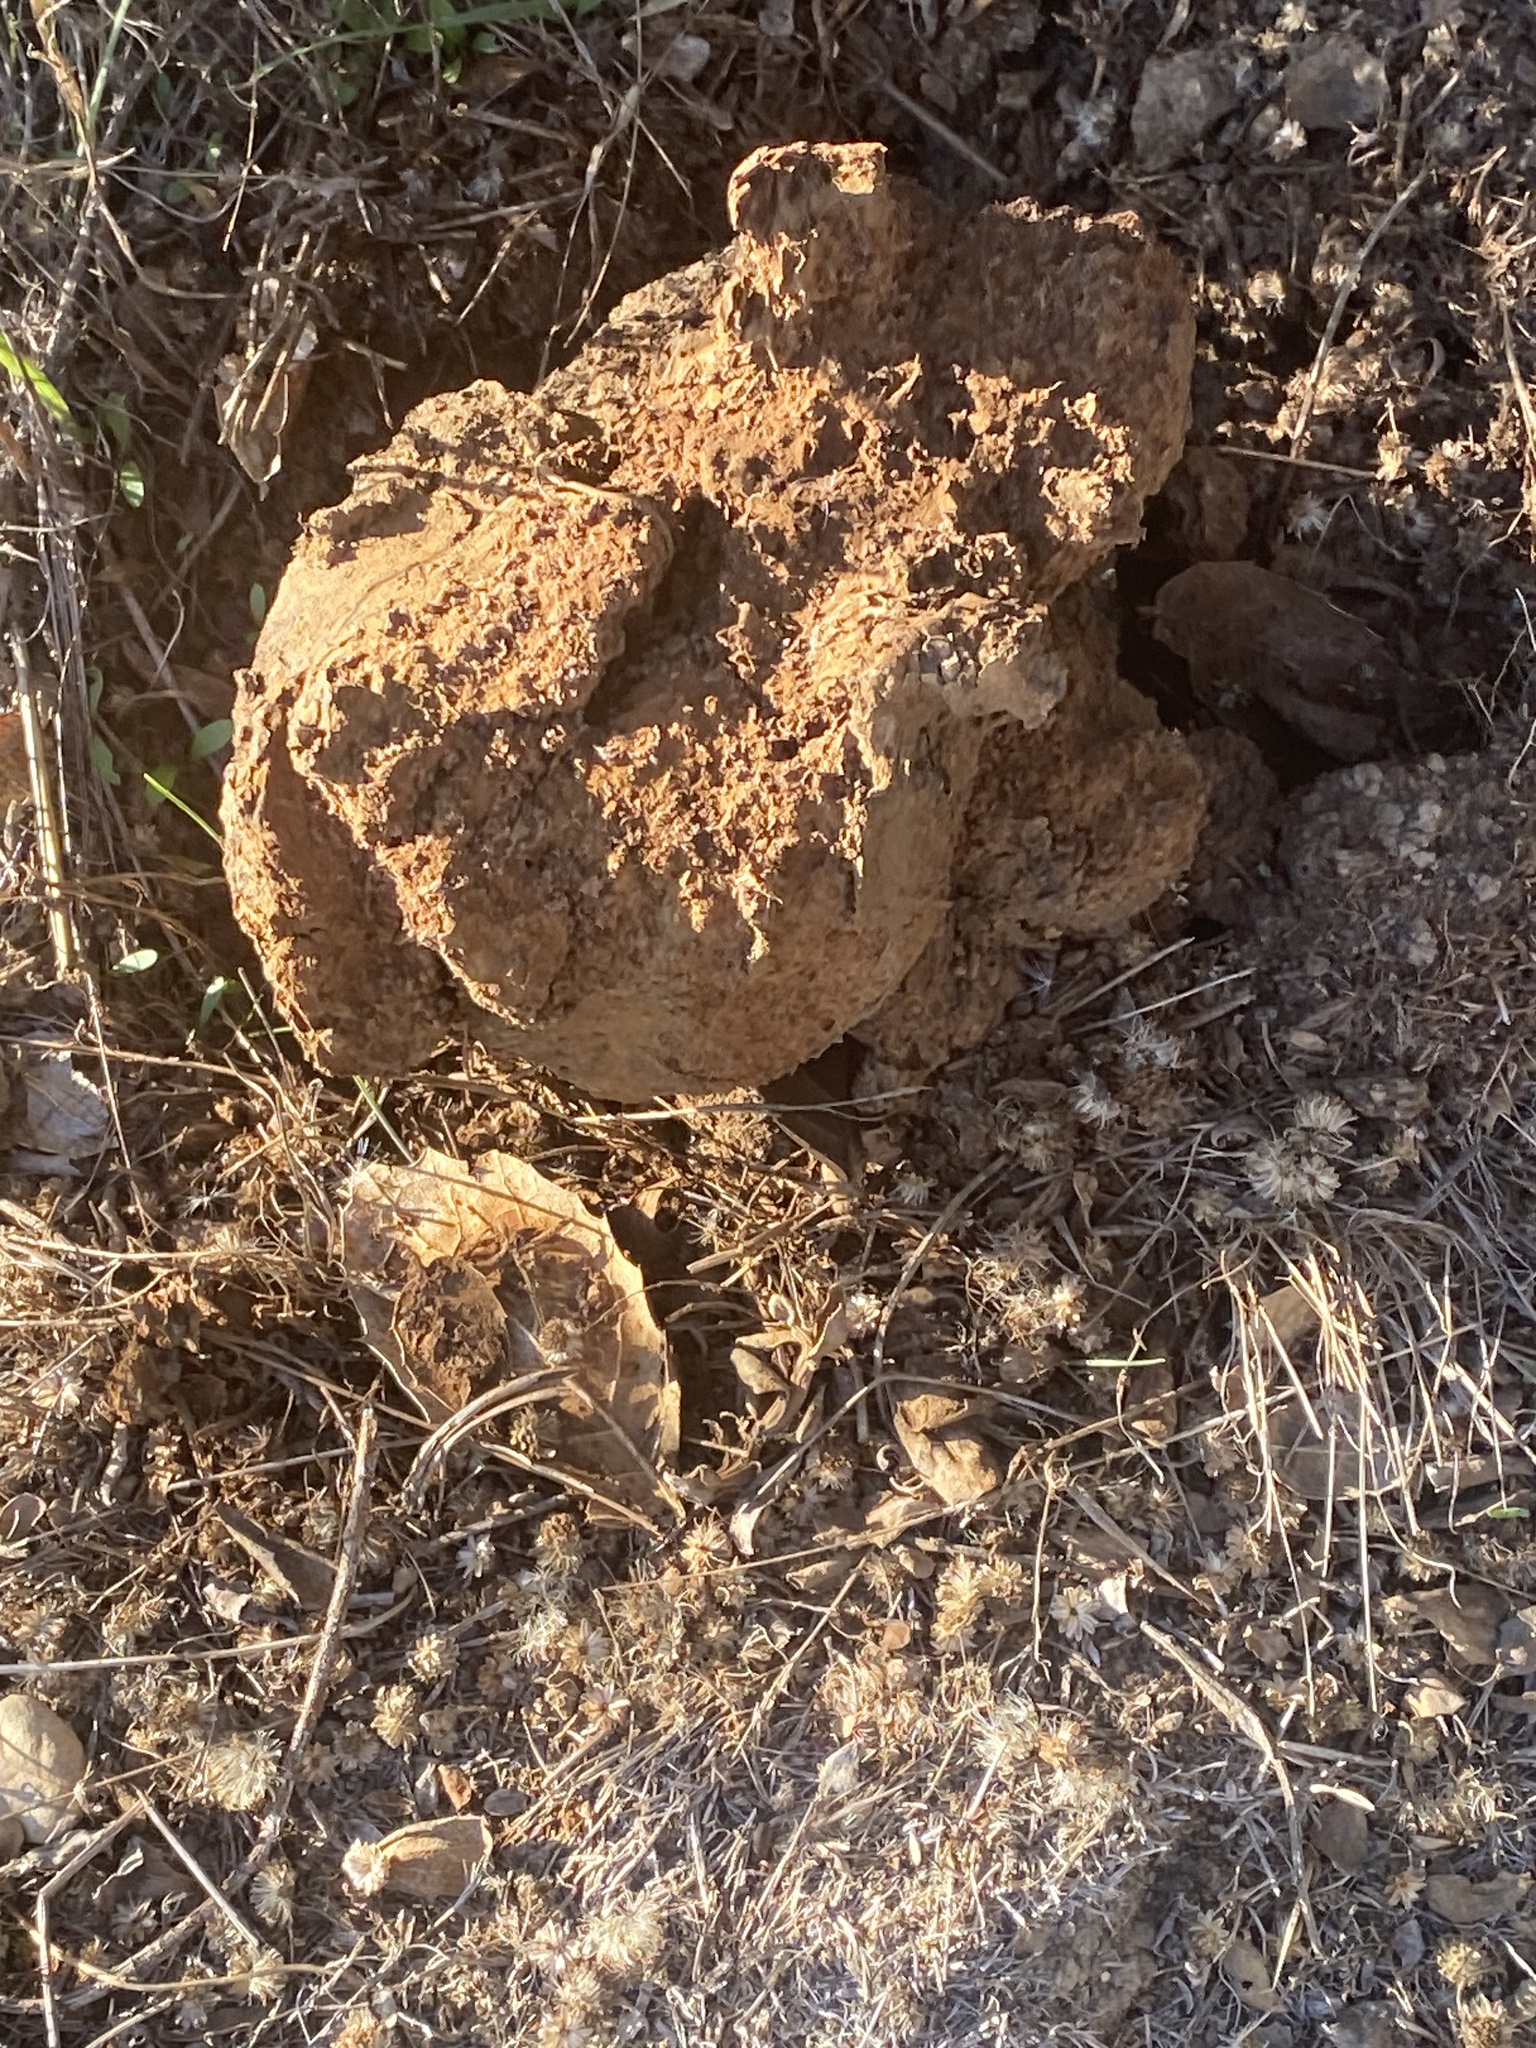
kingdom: Fungi
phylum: Basidiomycota
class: Agaricomycetes
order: Boletales
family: Sclerodermataceae
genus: Pisolithus
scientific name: Pisolithus tinctorius
